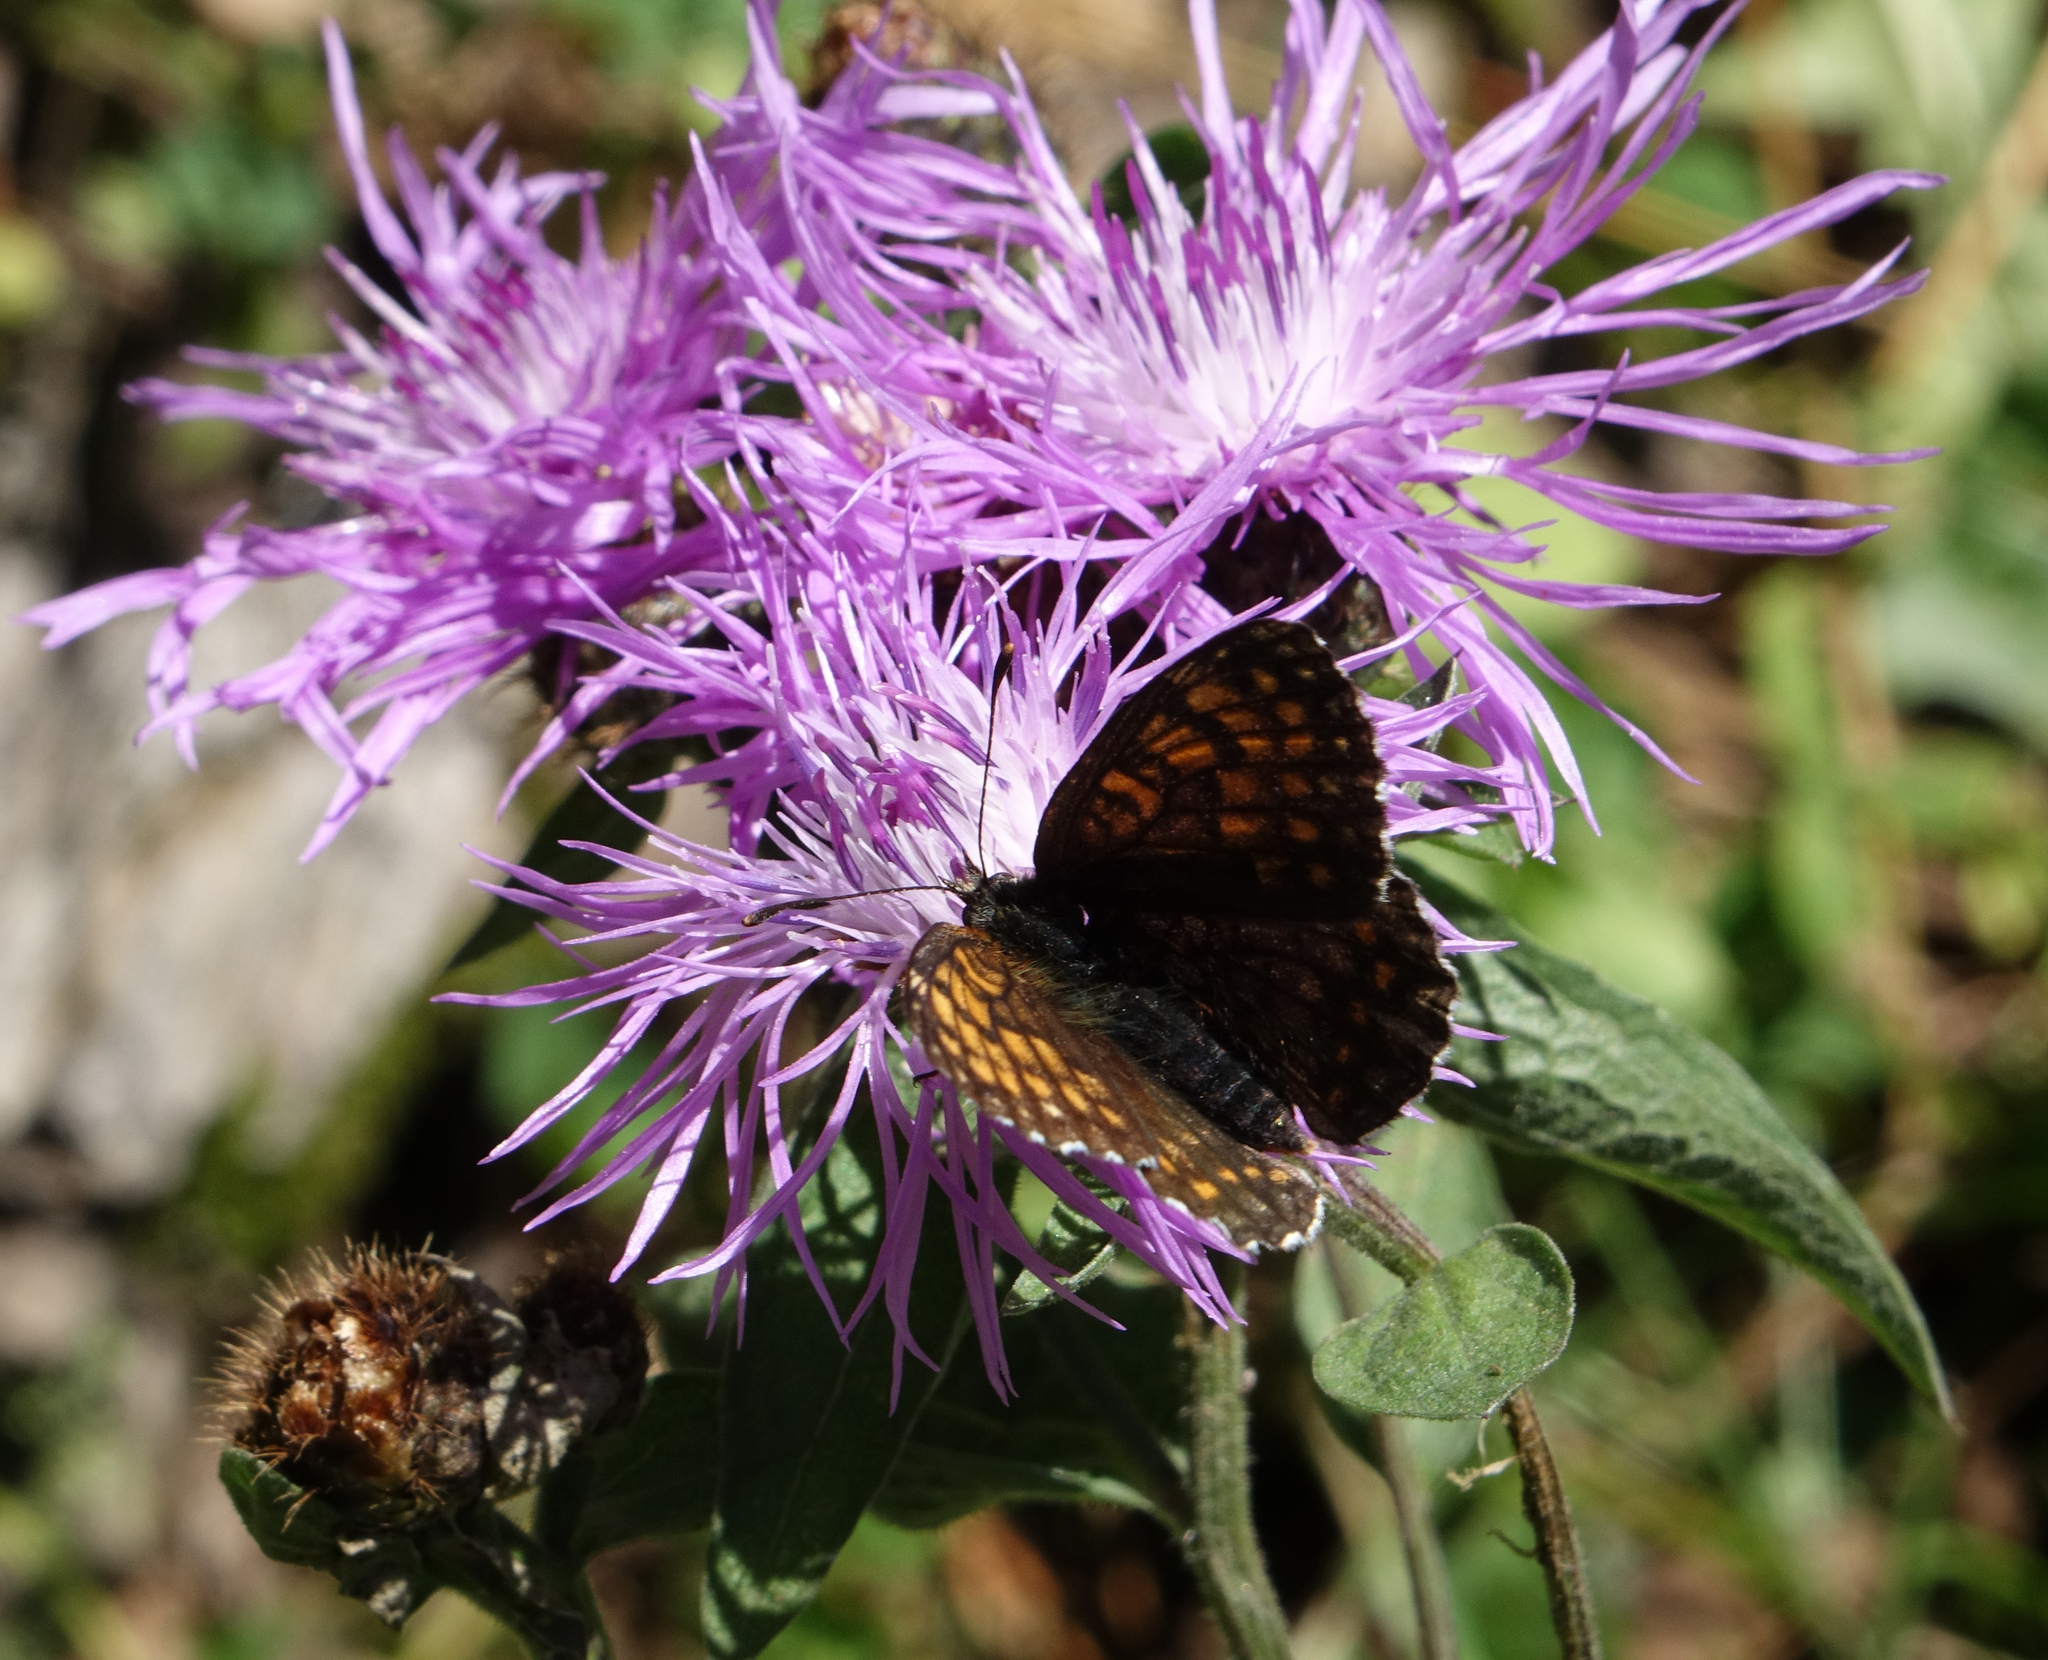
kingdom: Animalia
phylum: Arthropoda
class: Insecta
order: Lepidoptera
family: Nymphalidae
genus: Mellicta
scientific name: Mellicta athalia
